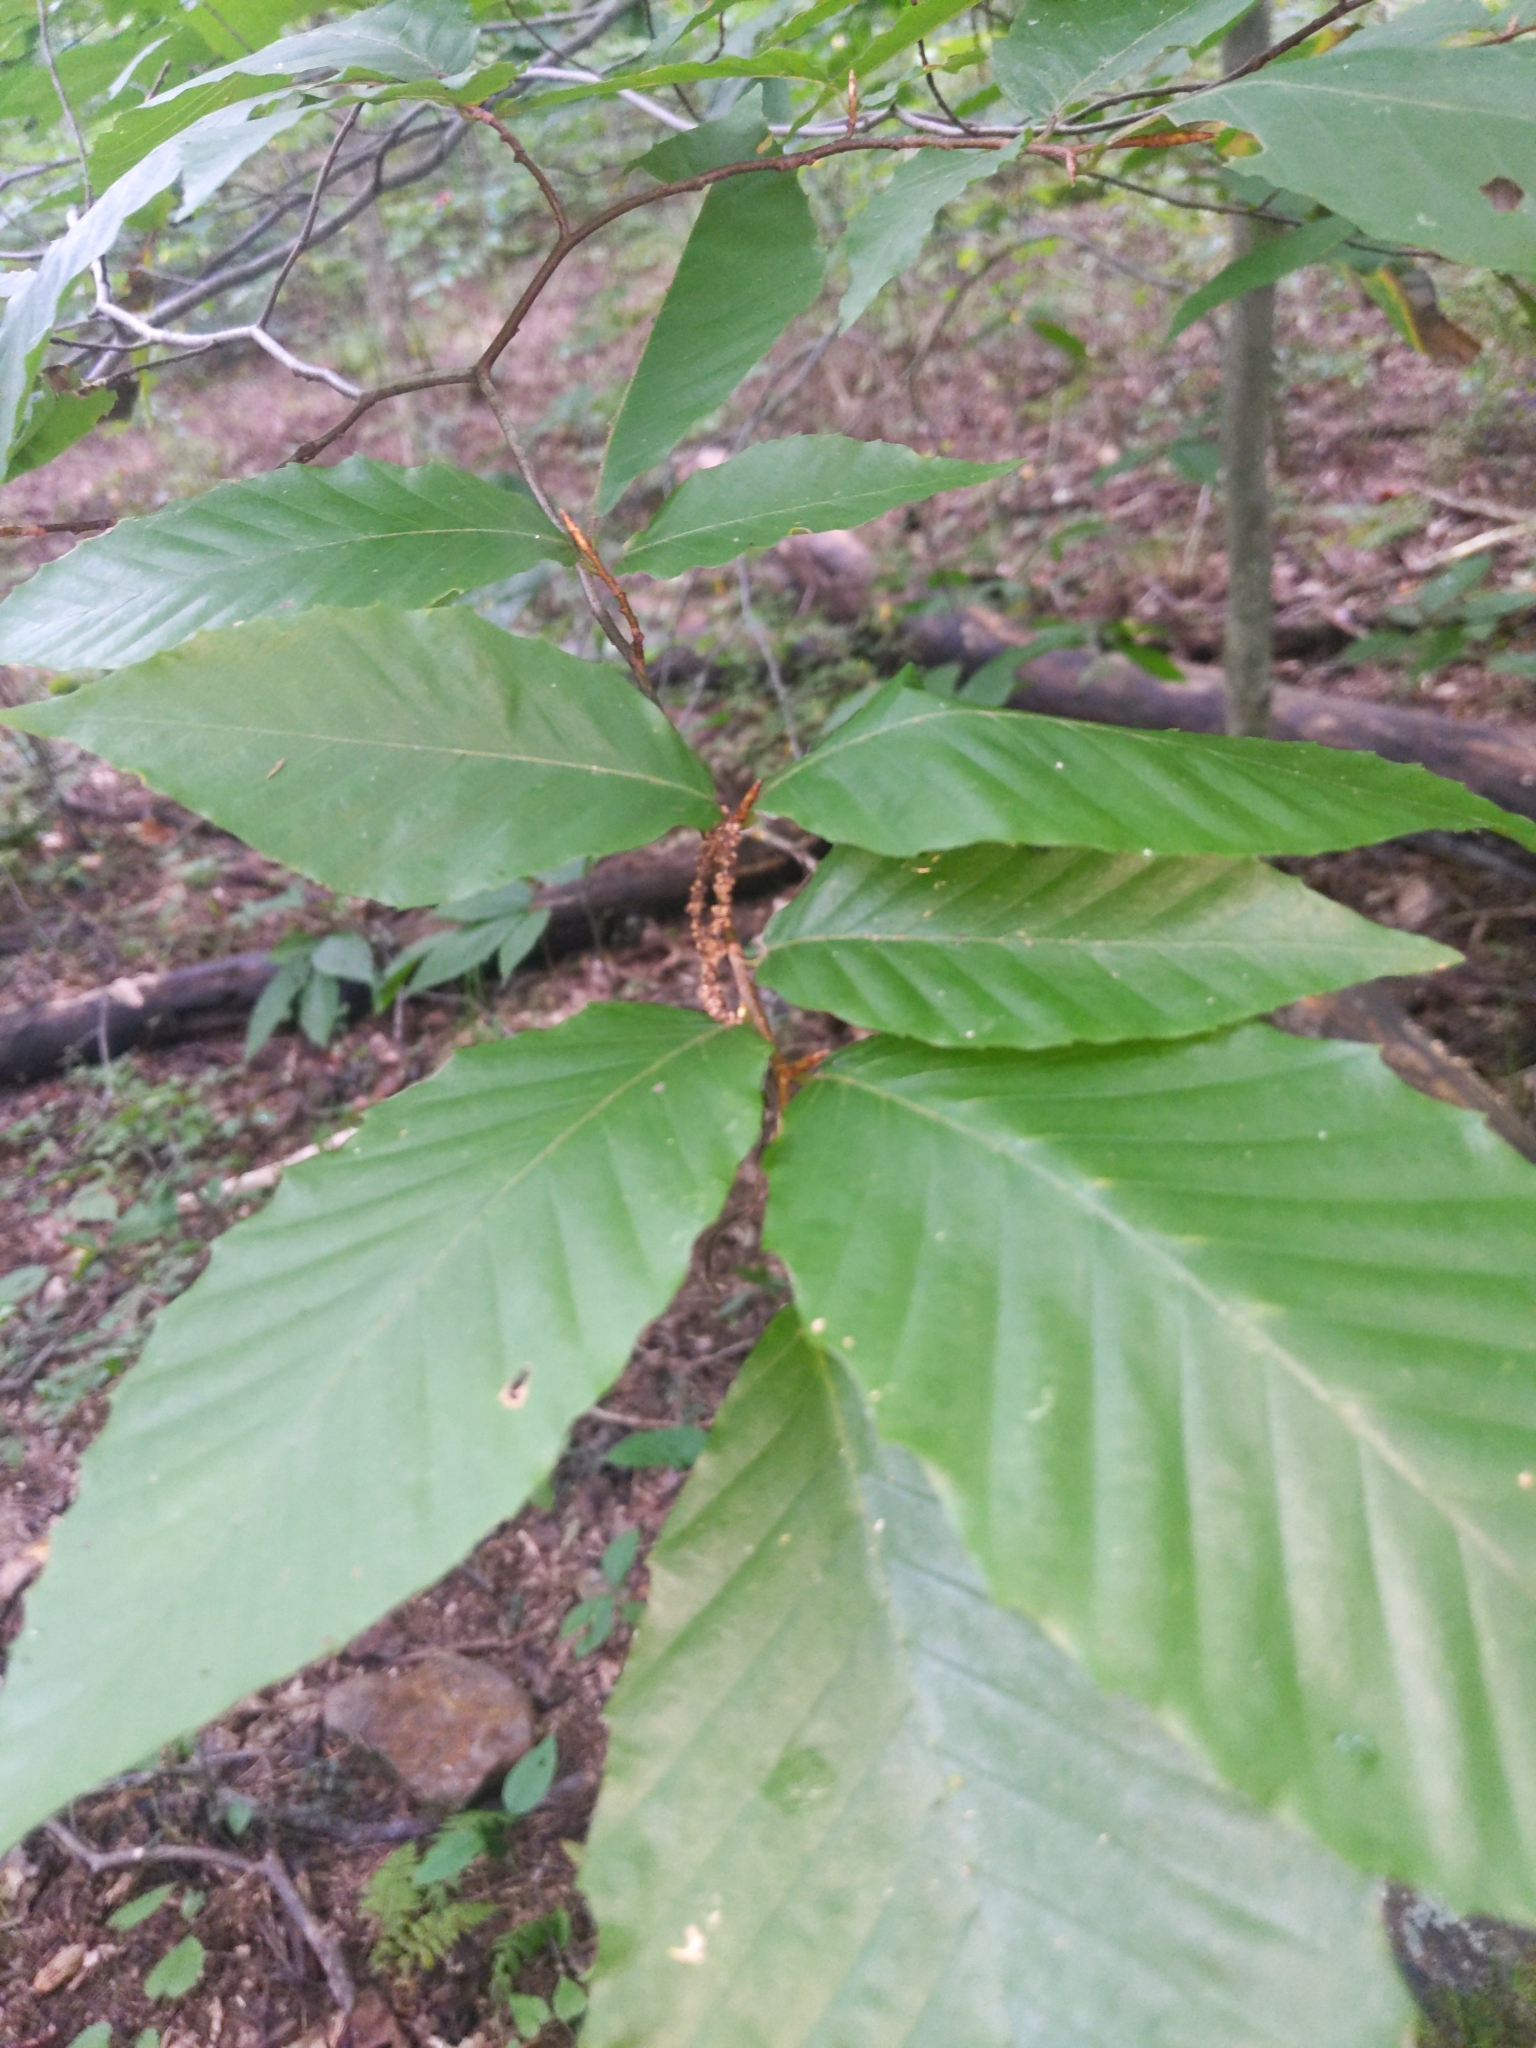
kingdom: Plantae
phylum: Tracheophyta
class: Magnoliopsida
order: Fagales
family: Fagaceae
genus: Fagus
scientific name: Fagus grandifolia
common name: American beech
